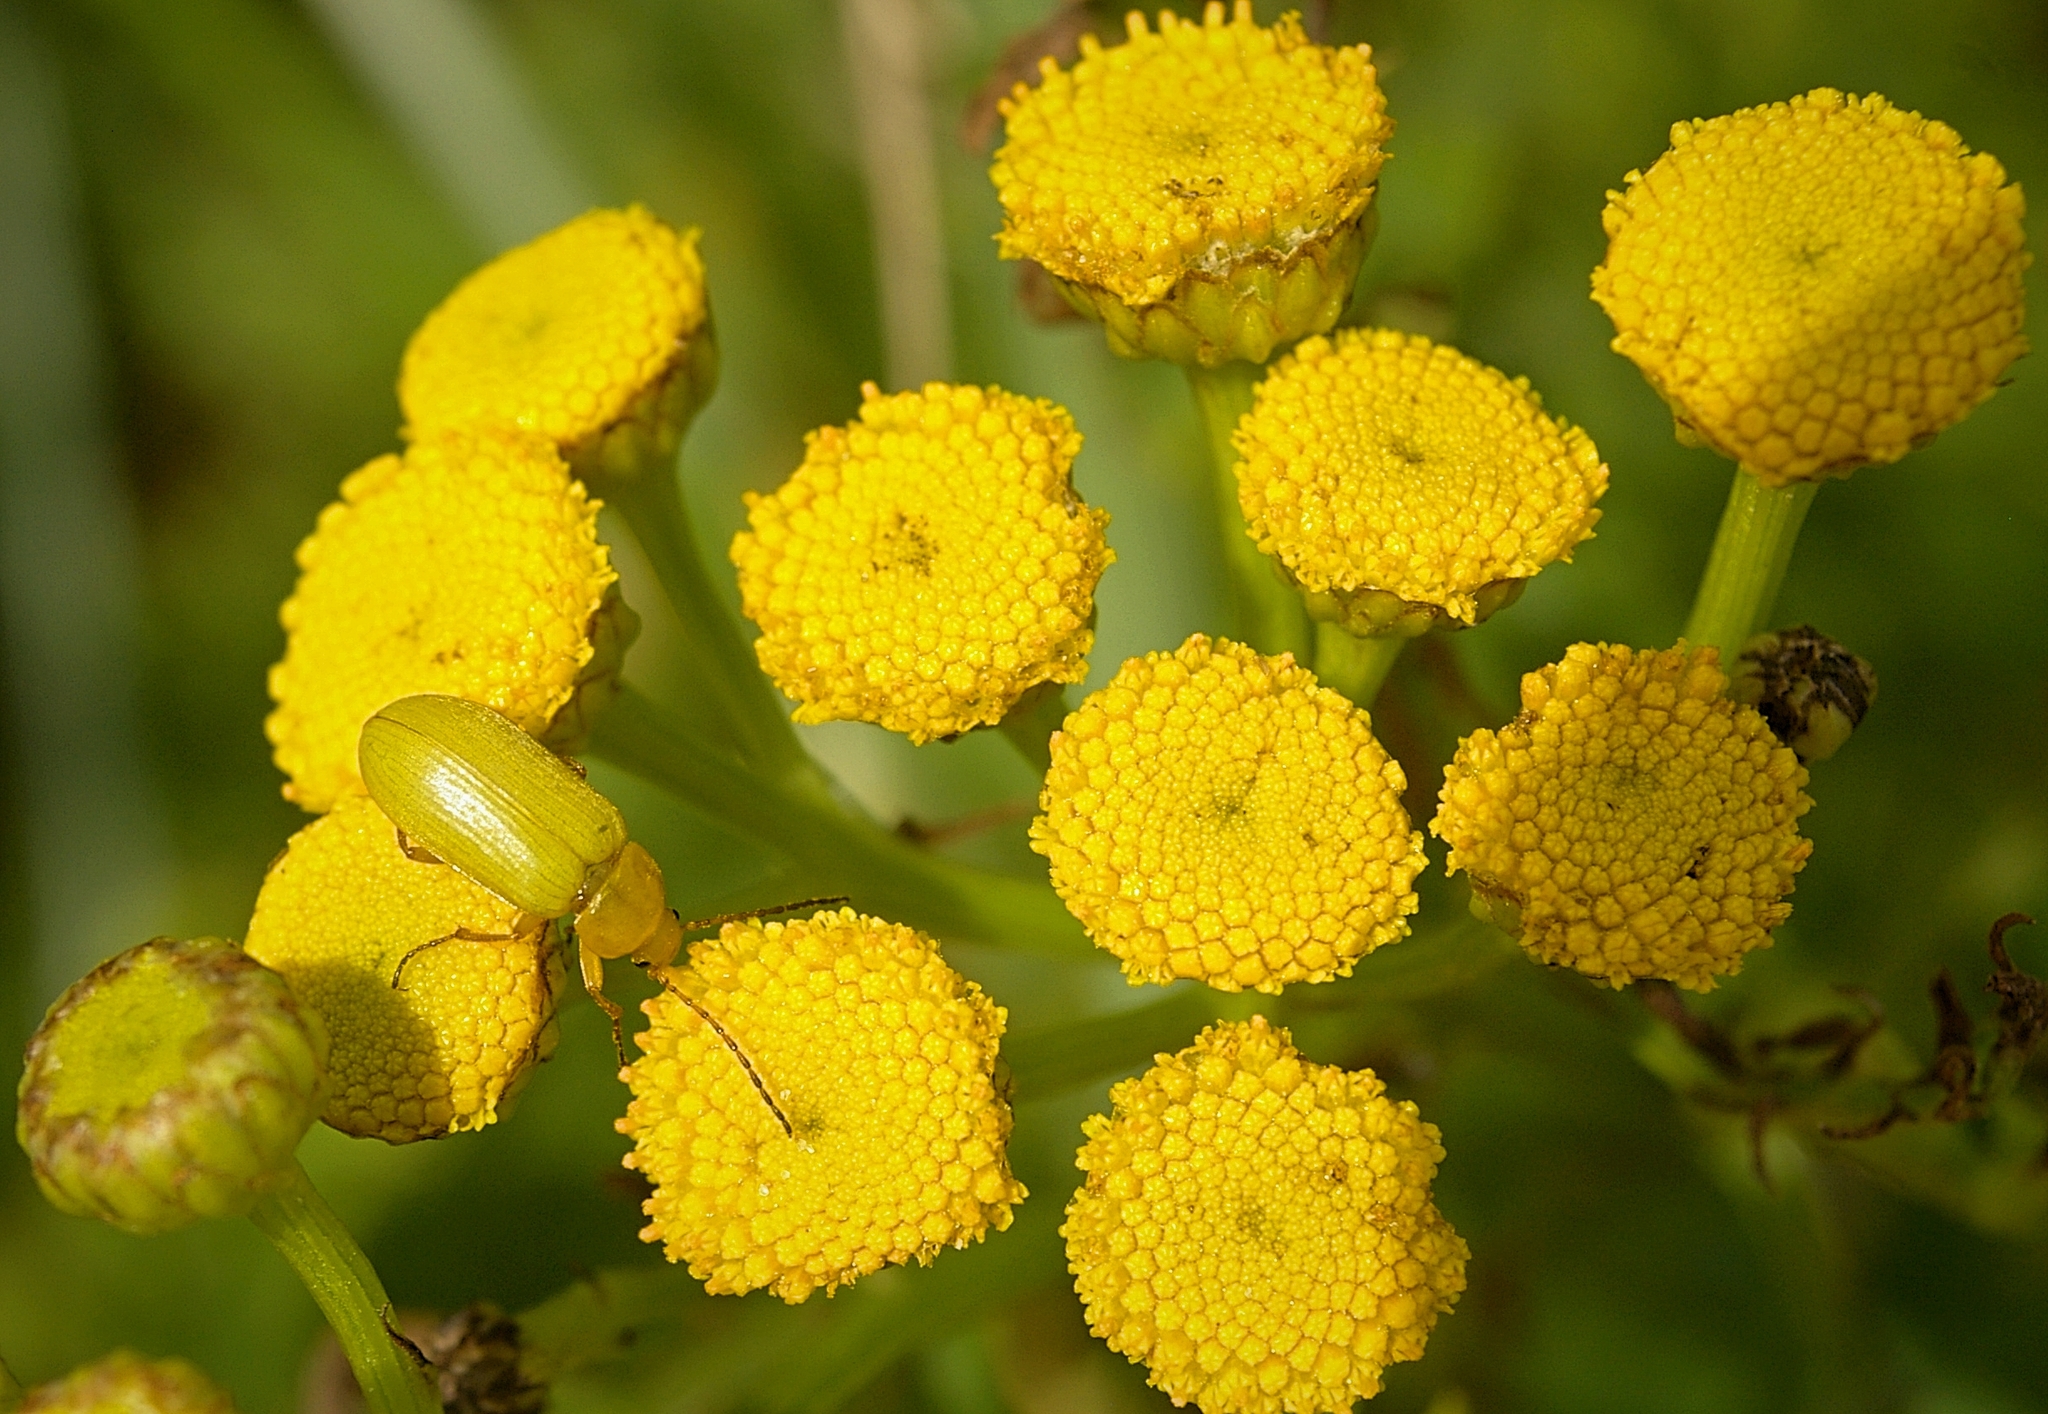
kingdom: Animalia
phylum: Arthropoda
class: Insecta
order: Coleoptera
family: Tenebrionidae
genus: Cteniopus
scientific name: Cteniopus sulphureus
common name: Sulphur beetle
